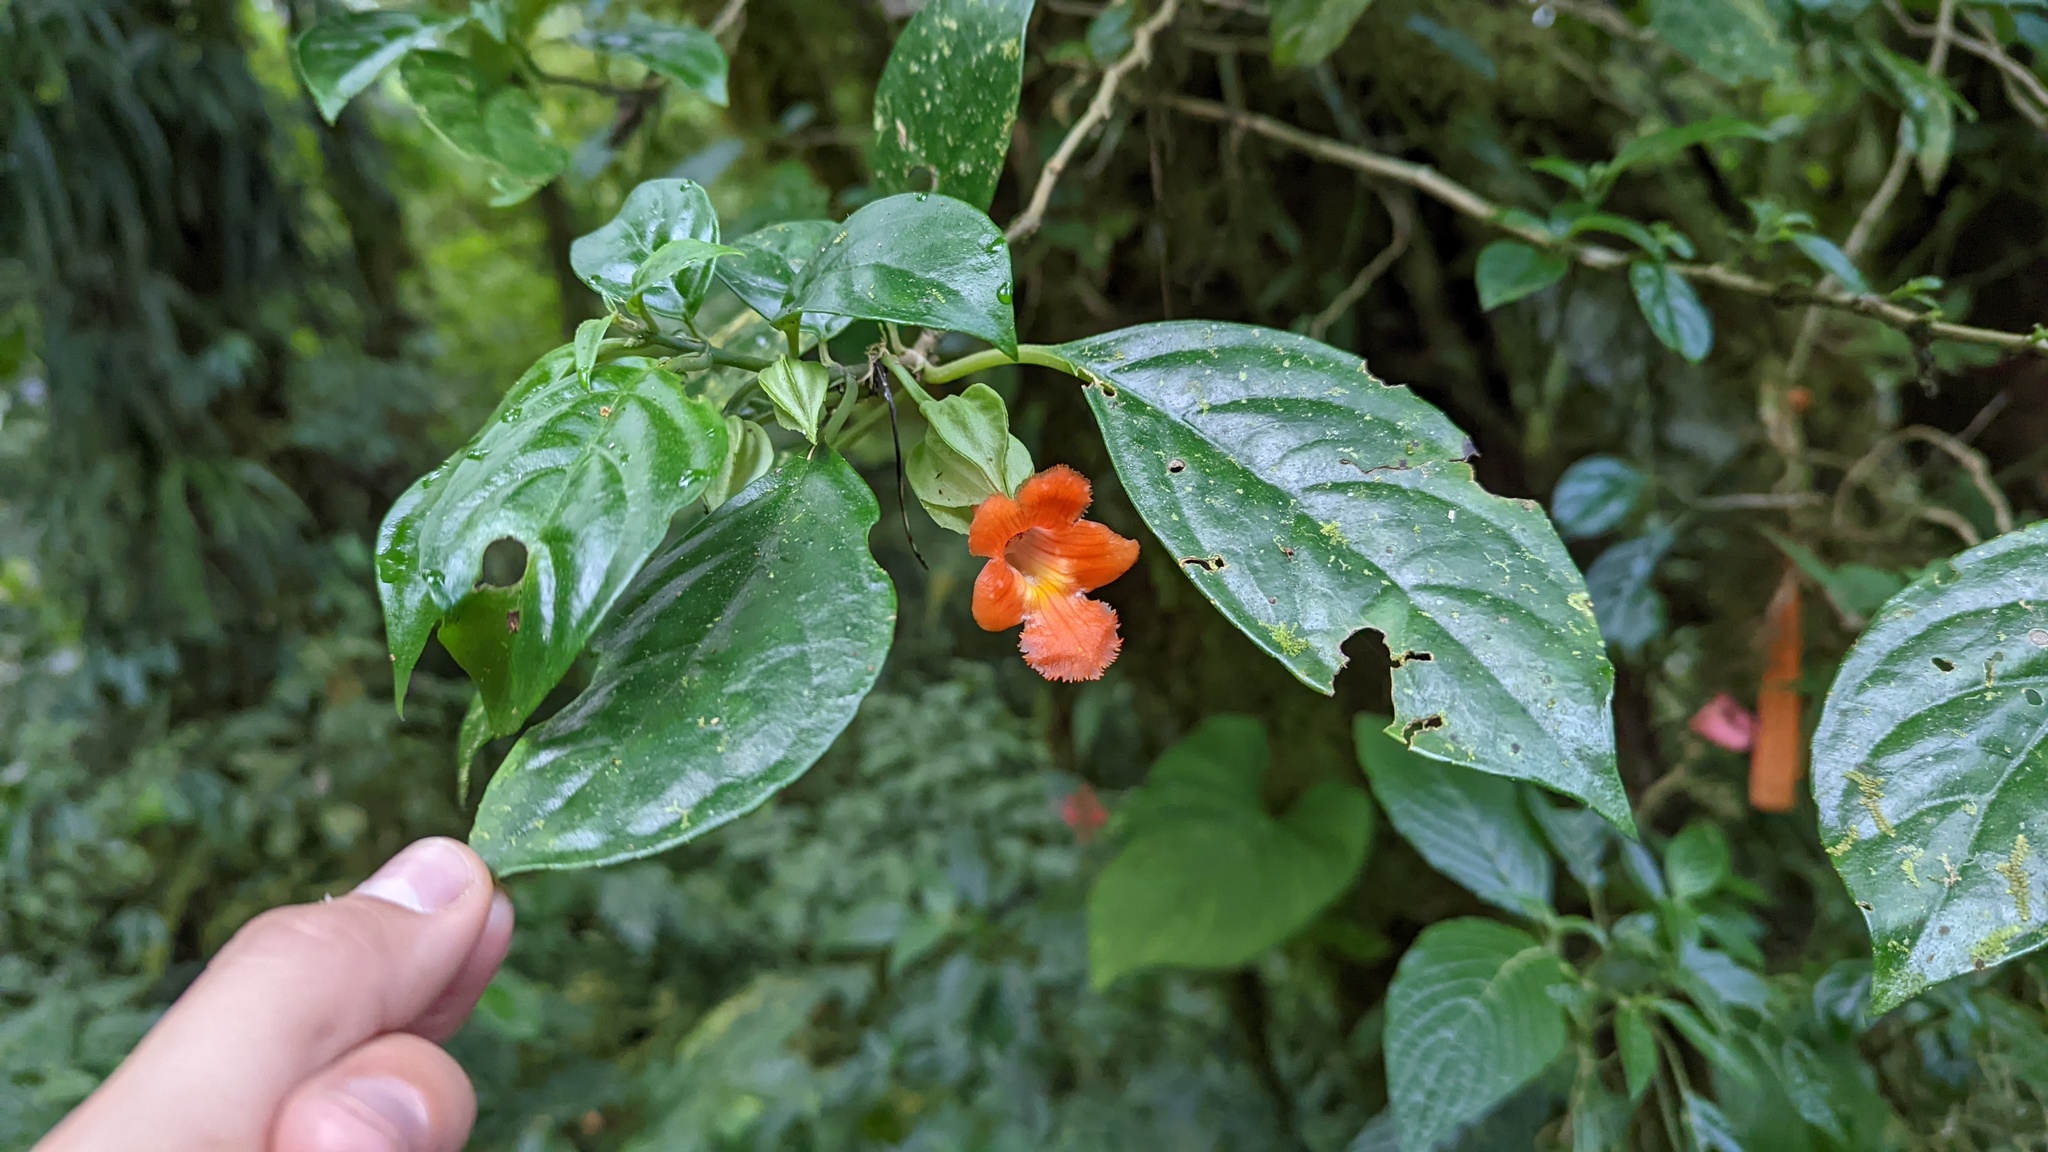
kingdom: Plantae
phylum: Tracheophyta
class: Magnoliopsida
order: Lamiales
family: Gesneriaceae
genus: Drymonia
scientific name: Drymonia rubra
